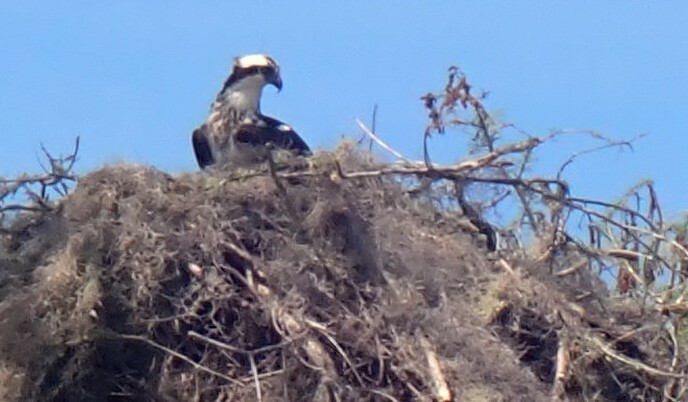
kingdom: Animalia
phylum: Chordata
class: Aves
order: Accipitriformes
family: Pandionidae
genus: Pandion
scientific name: Pandion haliaetus
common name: Osprey
